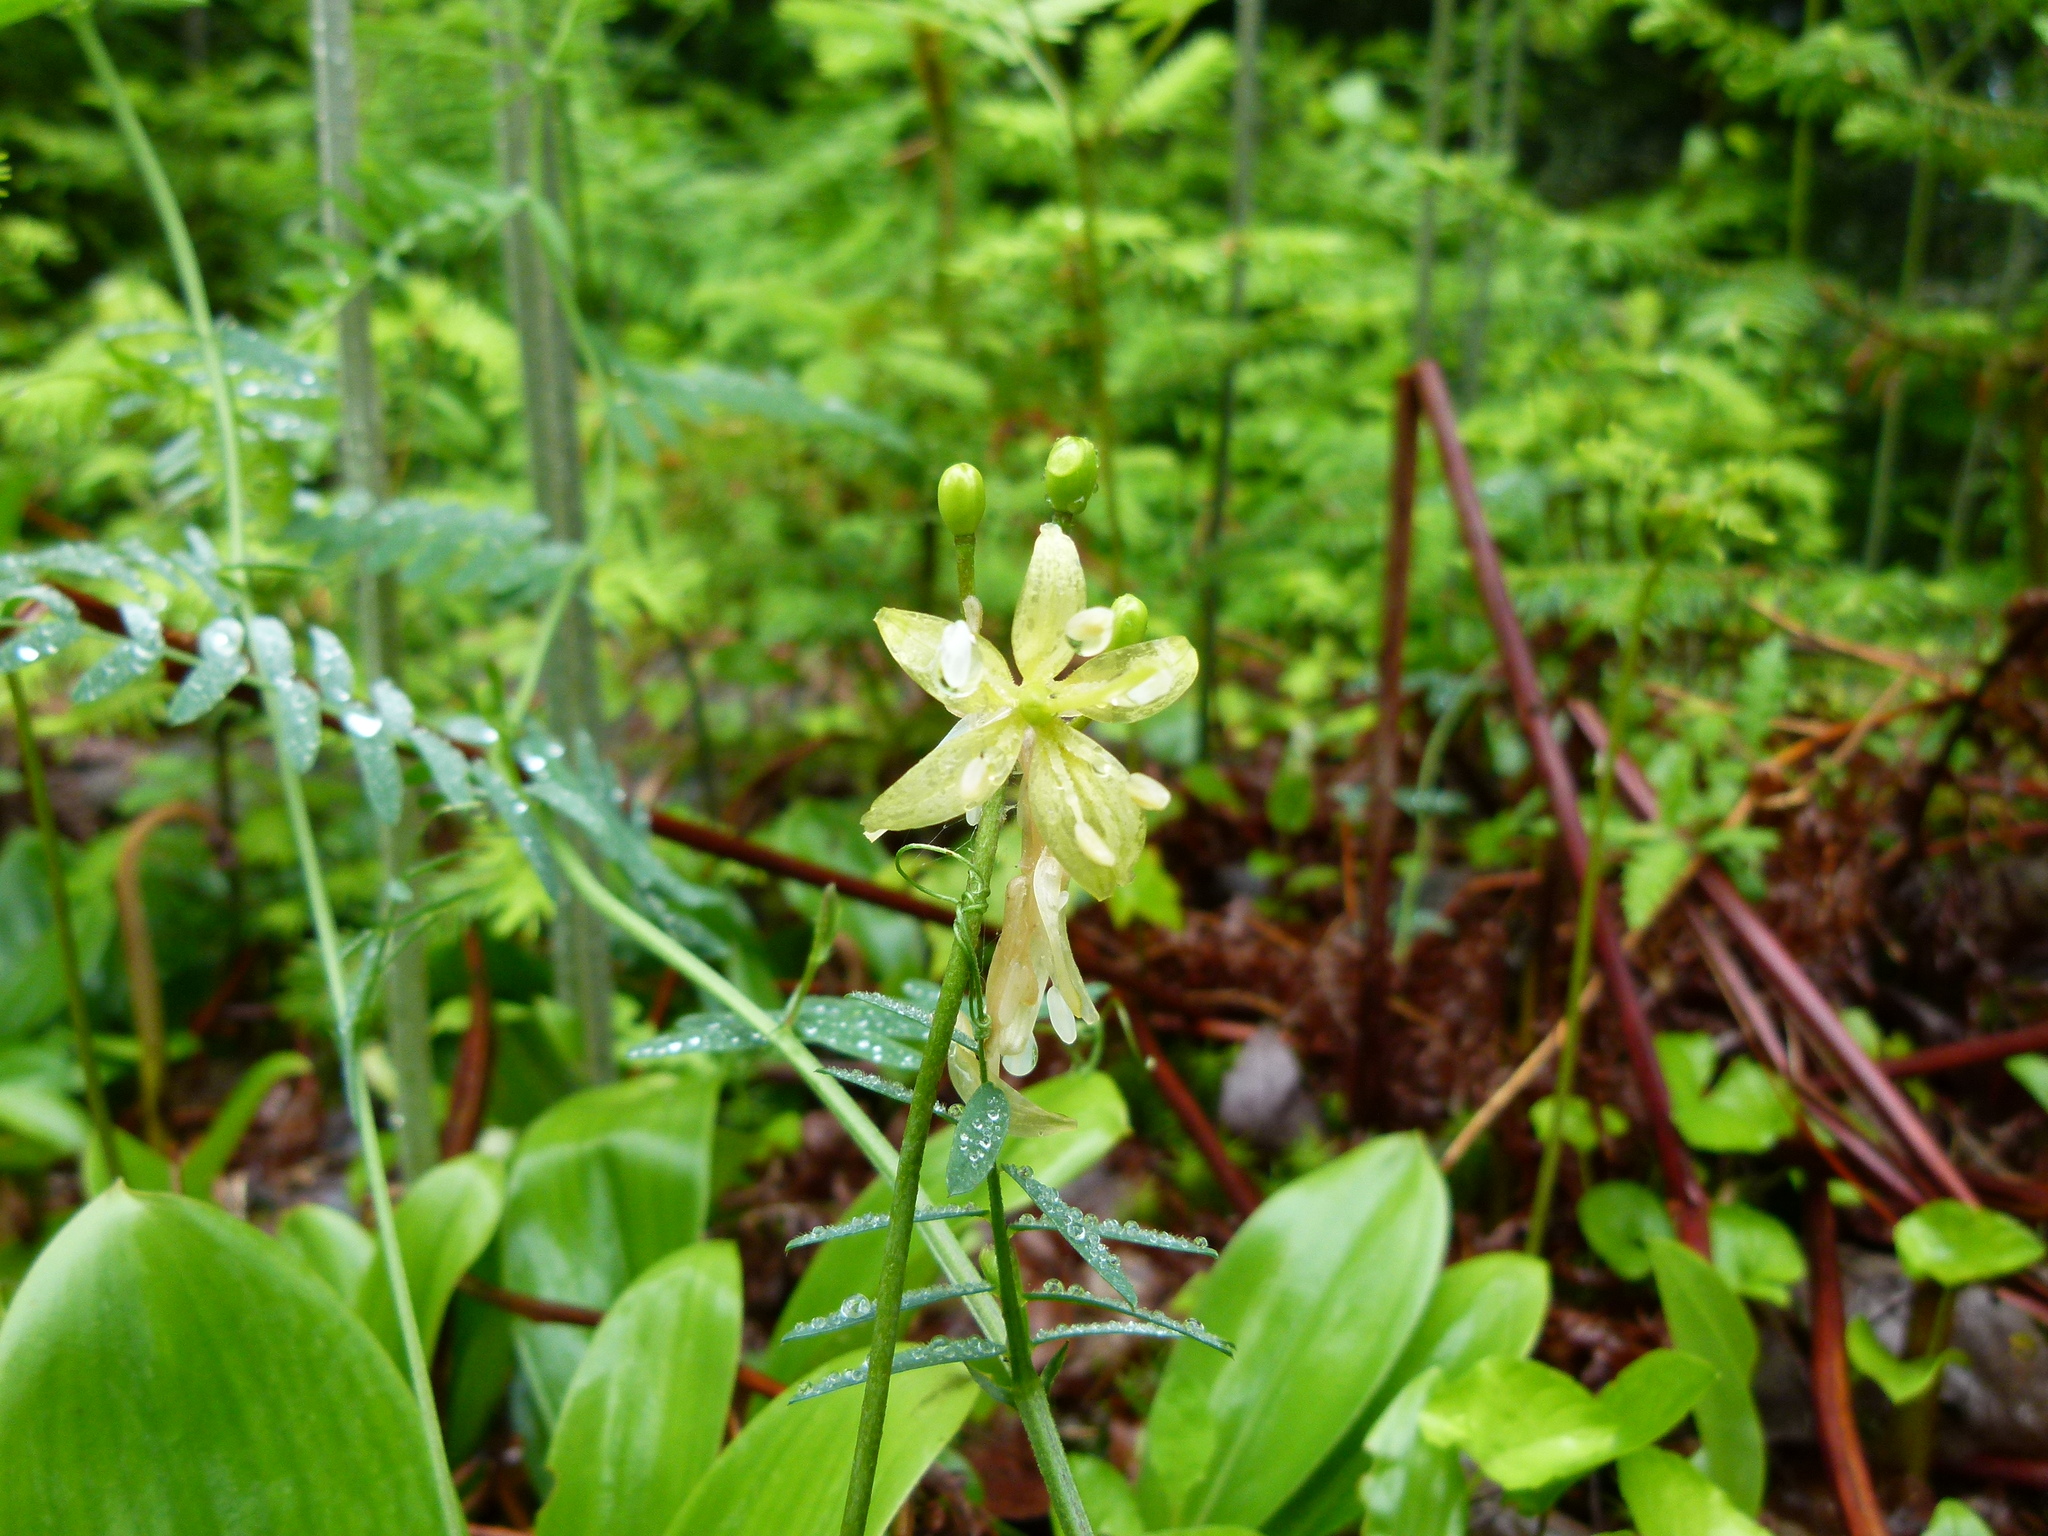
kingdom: Plantae
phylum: Tracheophyta
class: Liliopsida
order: Liliales
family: Liliaceae
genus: Clintonia
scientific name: Clintonia borealis
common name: Yellow clintonia
